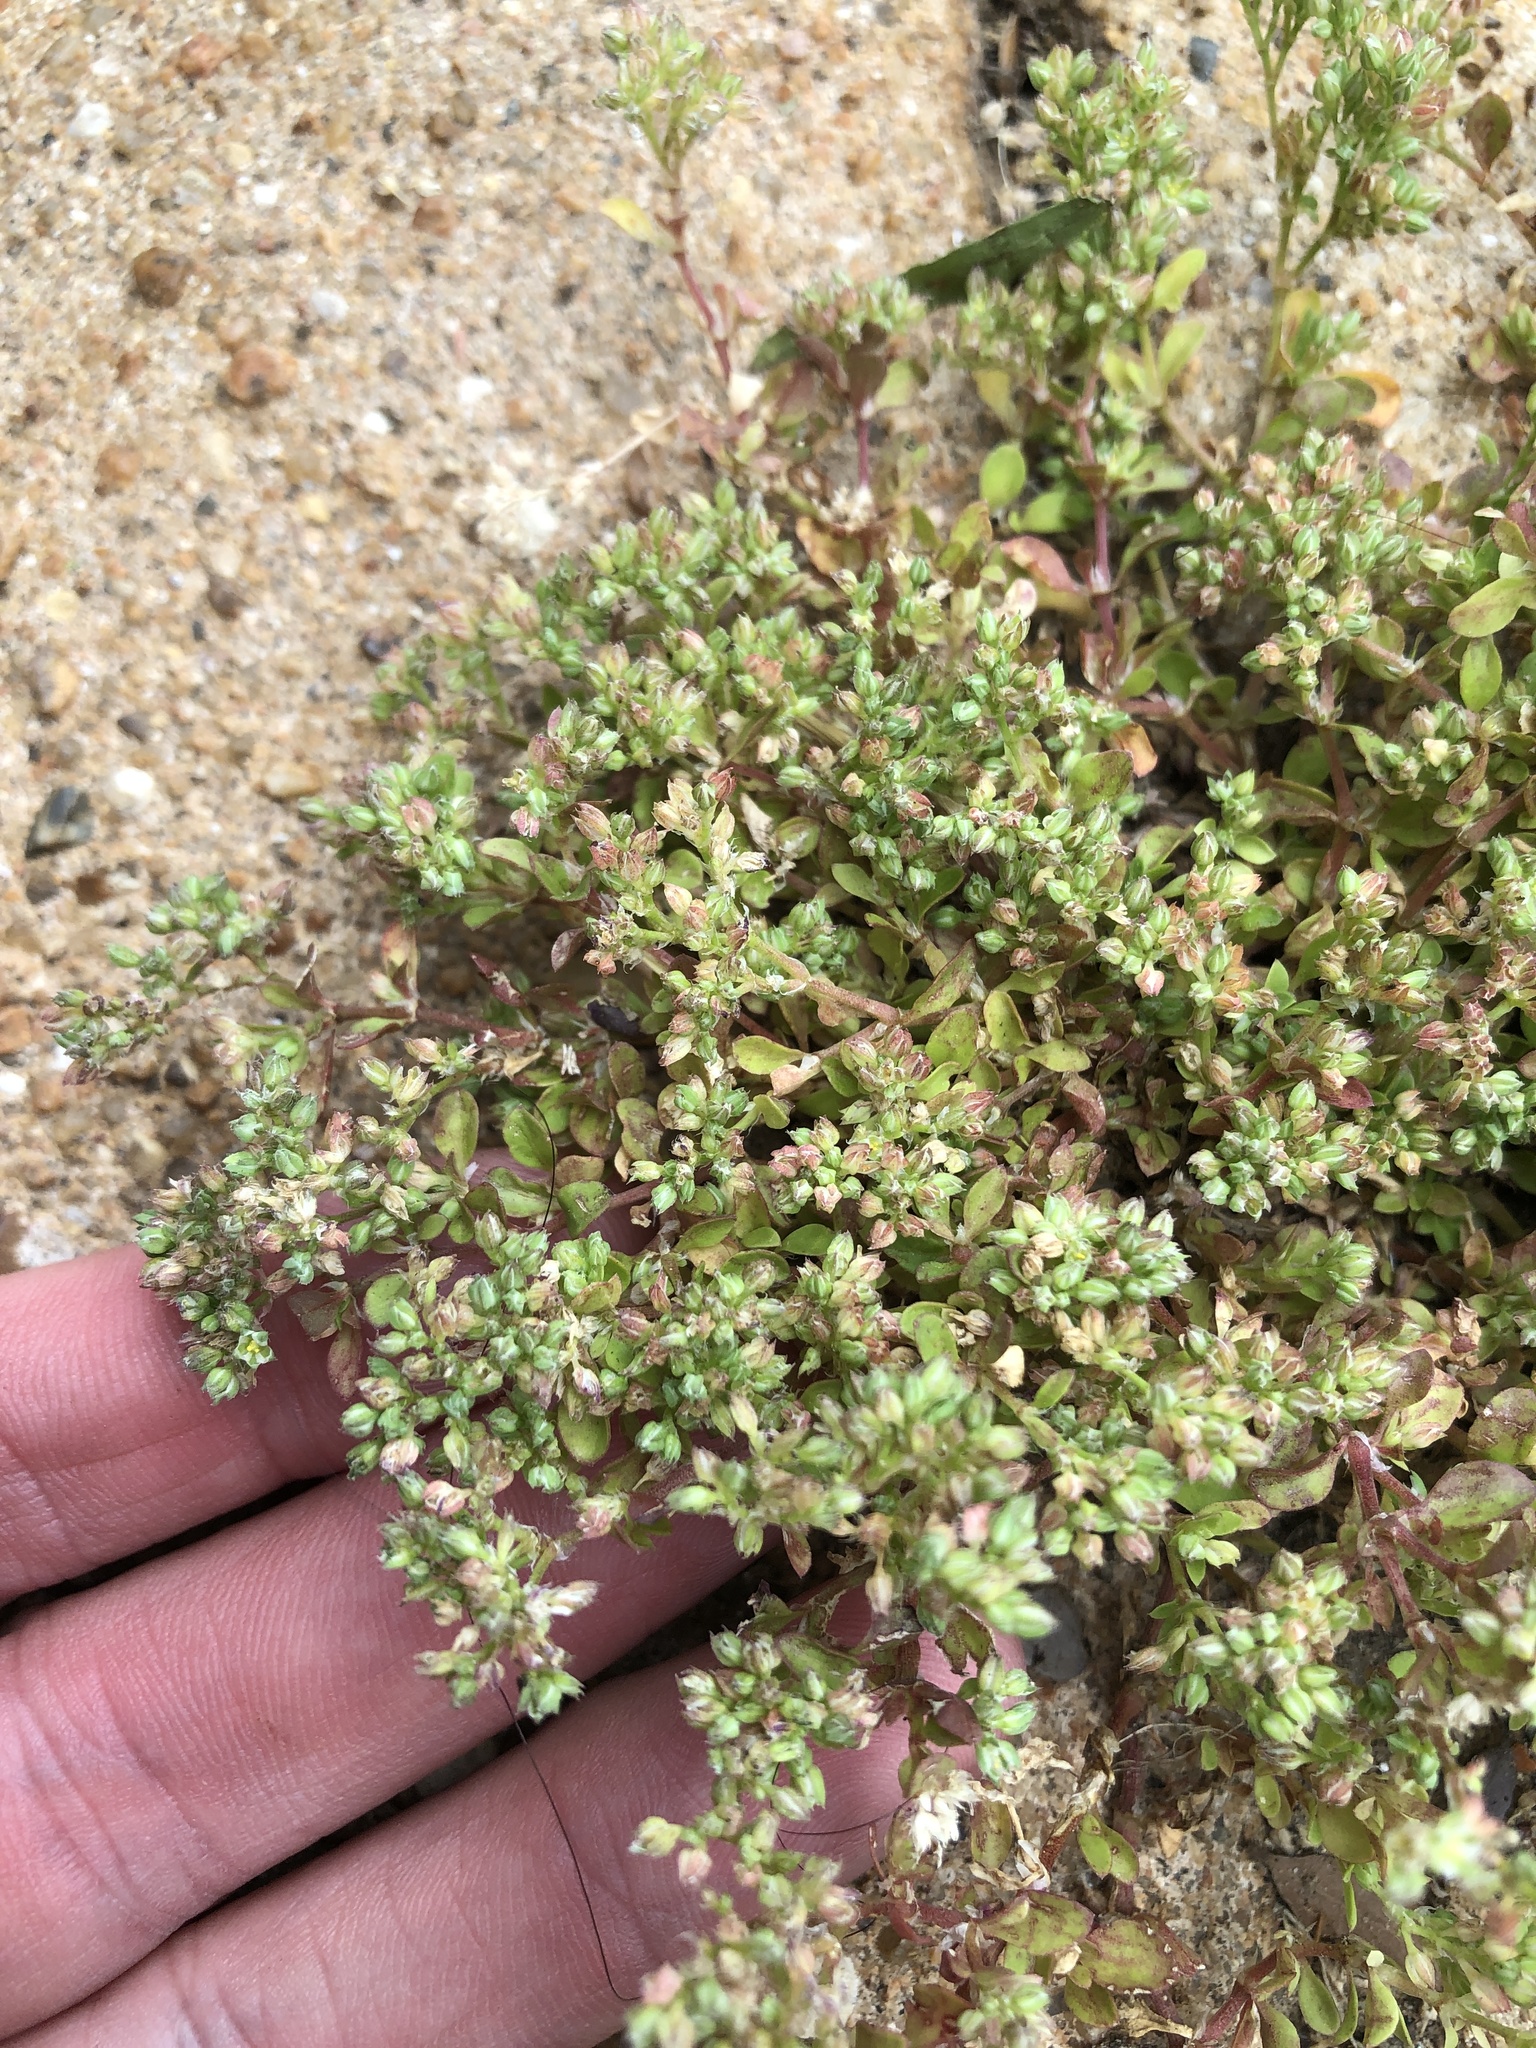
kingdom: Plantae
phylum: Tracheophyta
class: Magnoliopsida
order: Caryophyllales
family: Caryophyllaceae
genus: Polycarpon
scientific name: Polycarpon tetraphyllum
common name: Four-leaved all-seed
